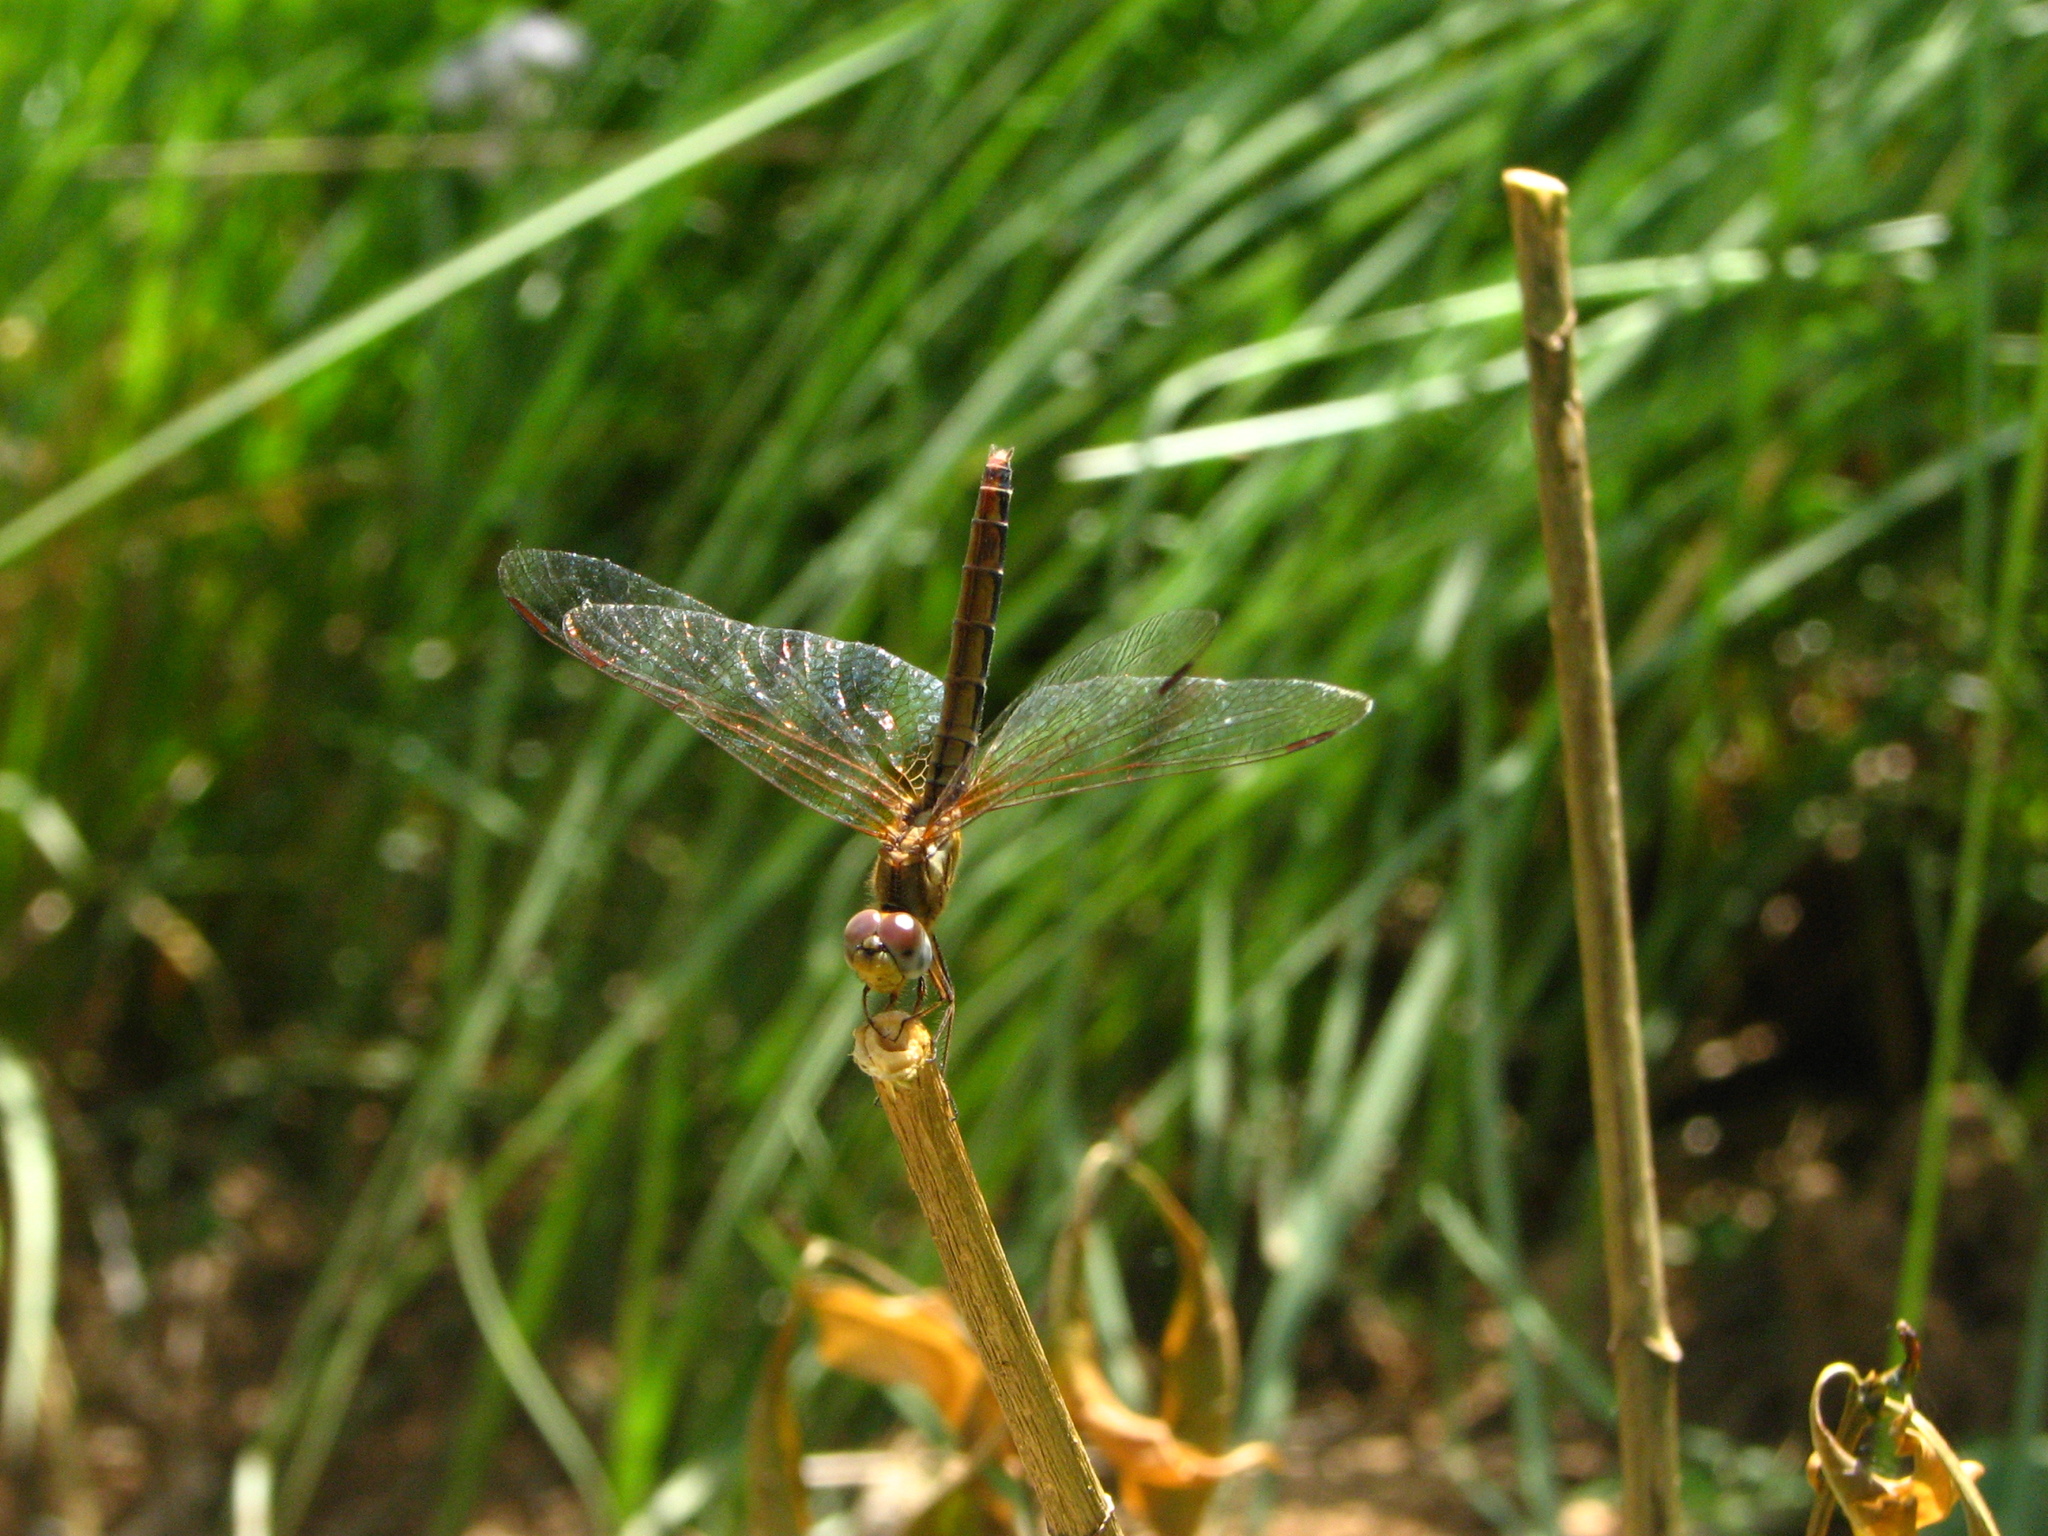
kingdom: Animalia
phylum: Arthropoda
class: Insecta
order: Odonata
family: Libellulidae
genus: Trithemis
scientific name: Trithemis aurora
